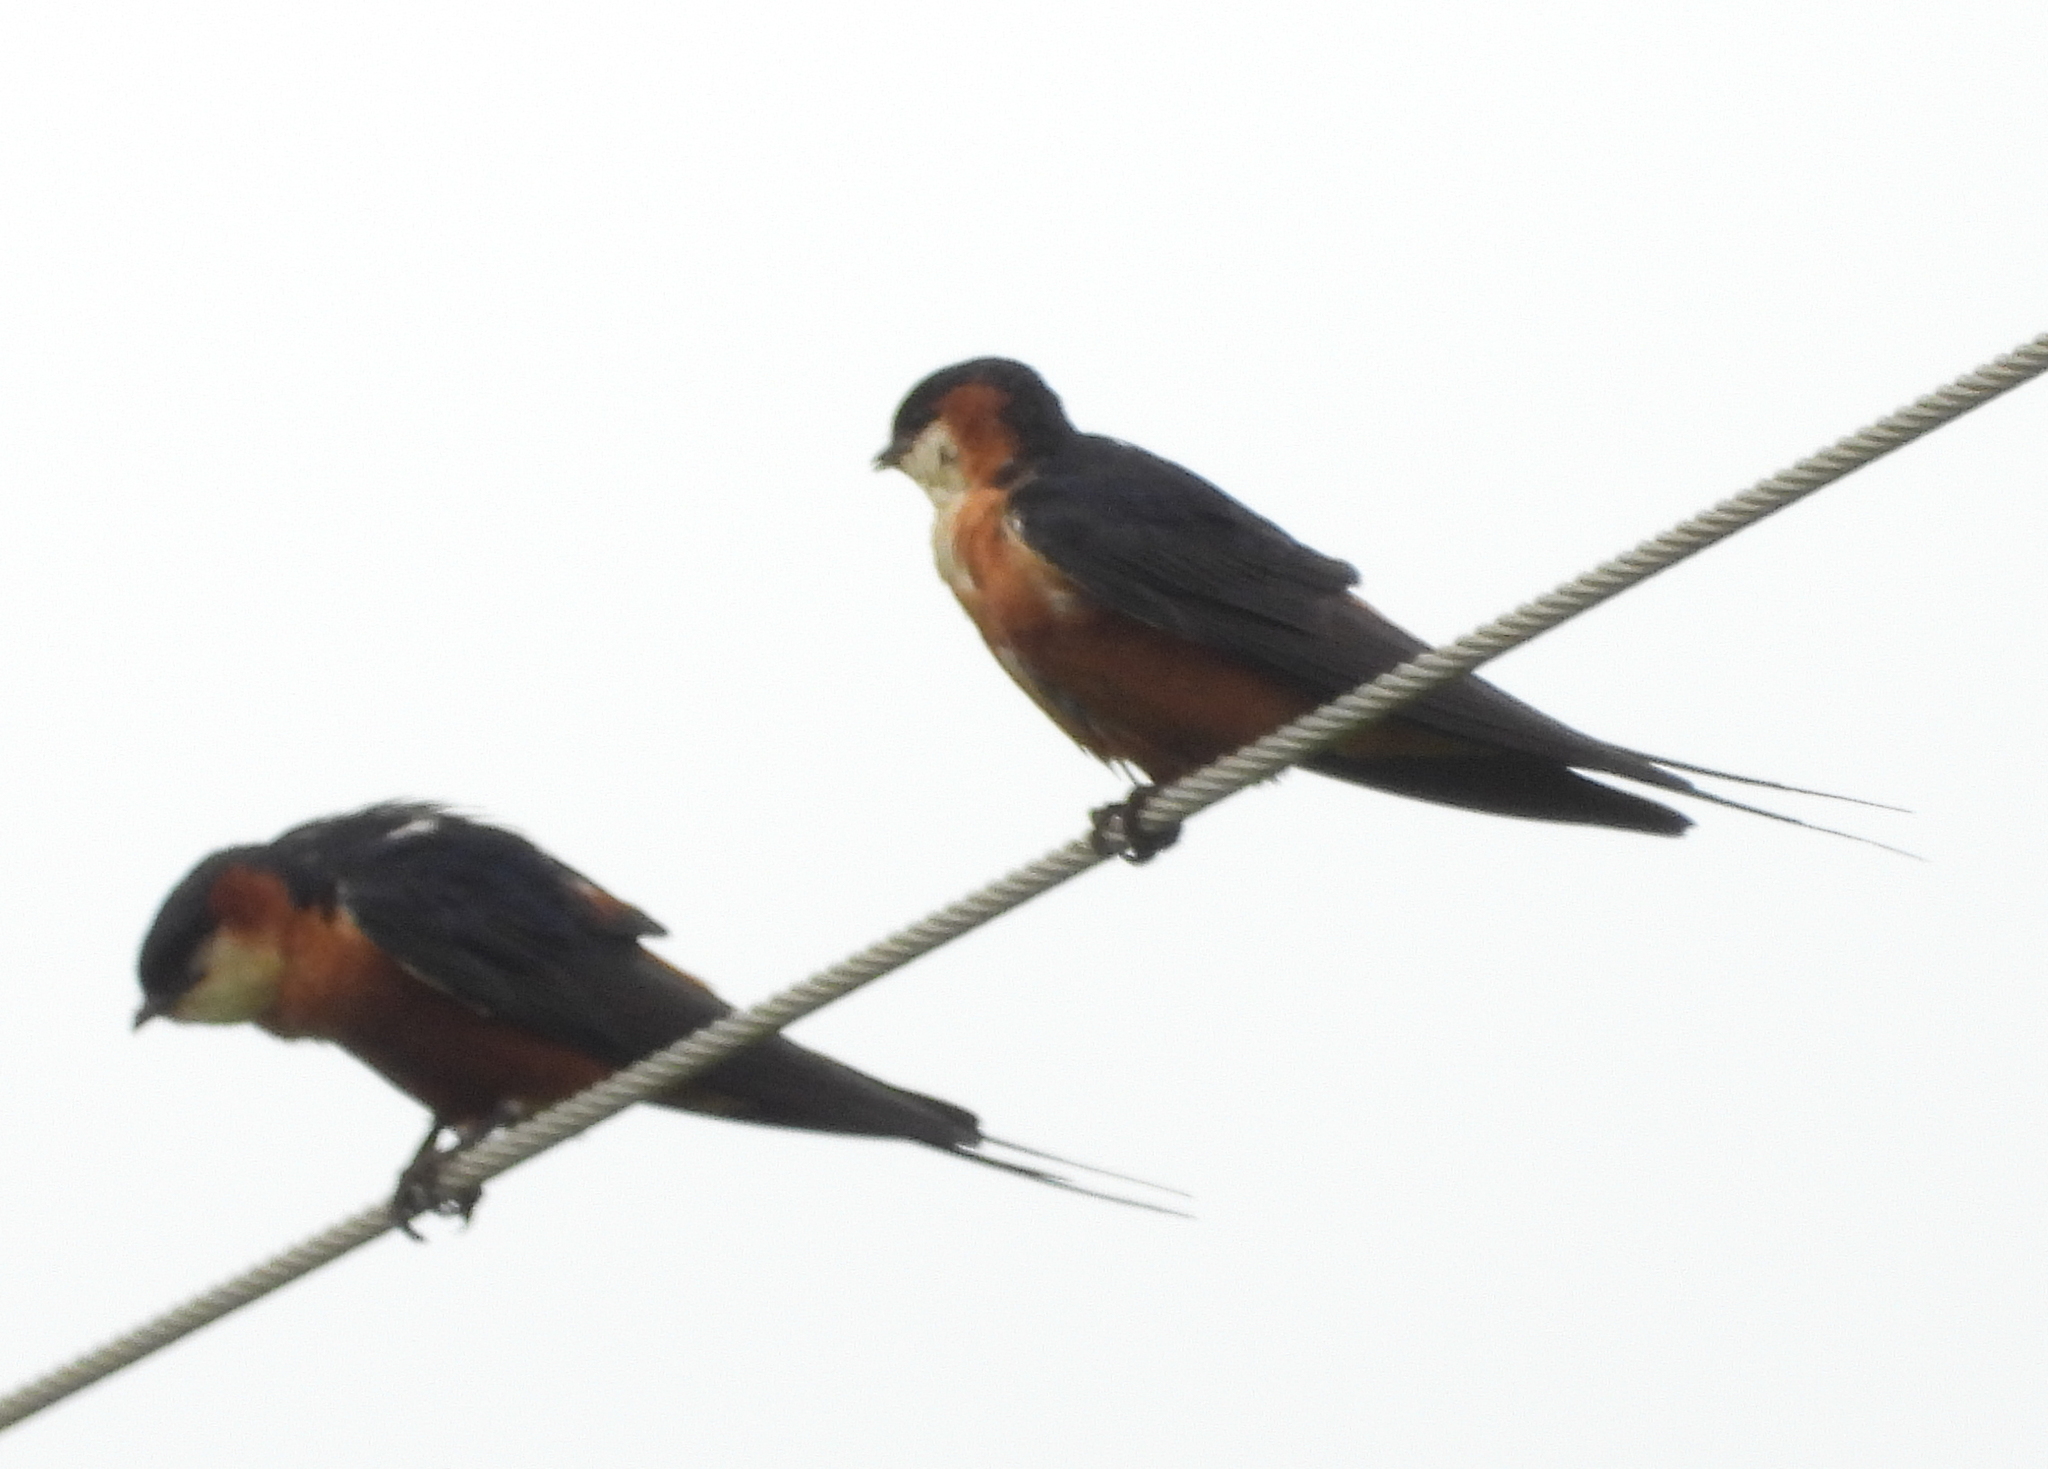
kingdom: Animalia
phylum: Chordata
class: Aves
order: Passeriformes
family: Hirundinidae
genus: Cecropis
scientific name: Cecropis senegalensis
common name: Mosque swallow
